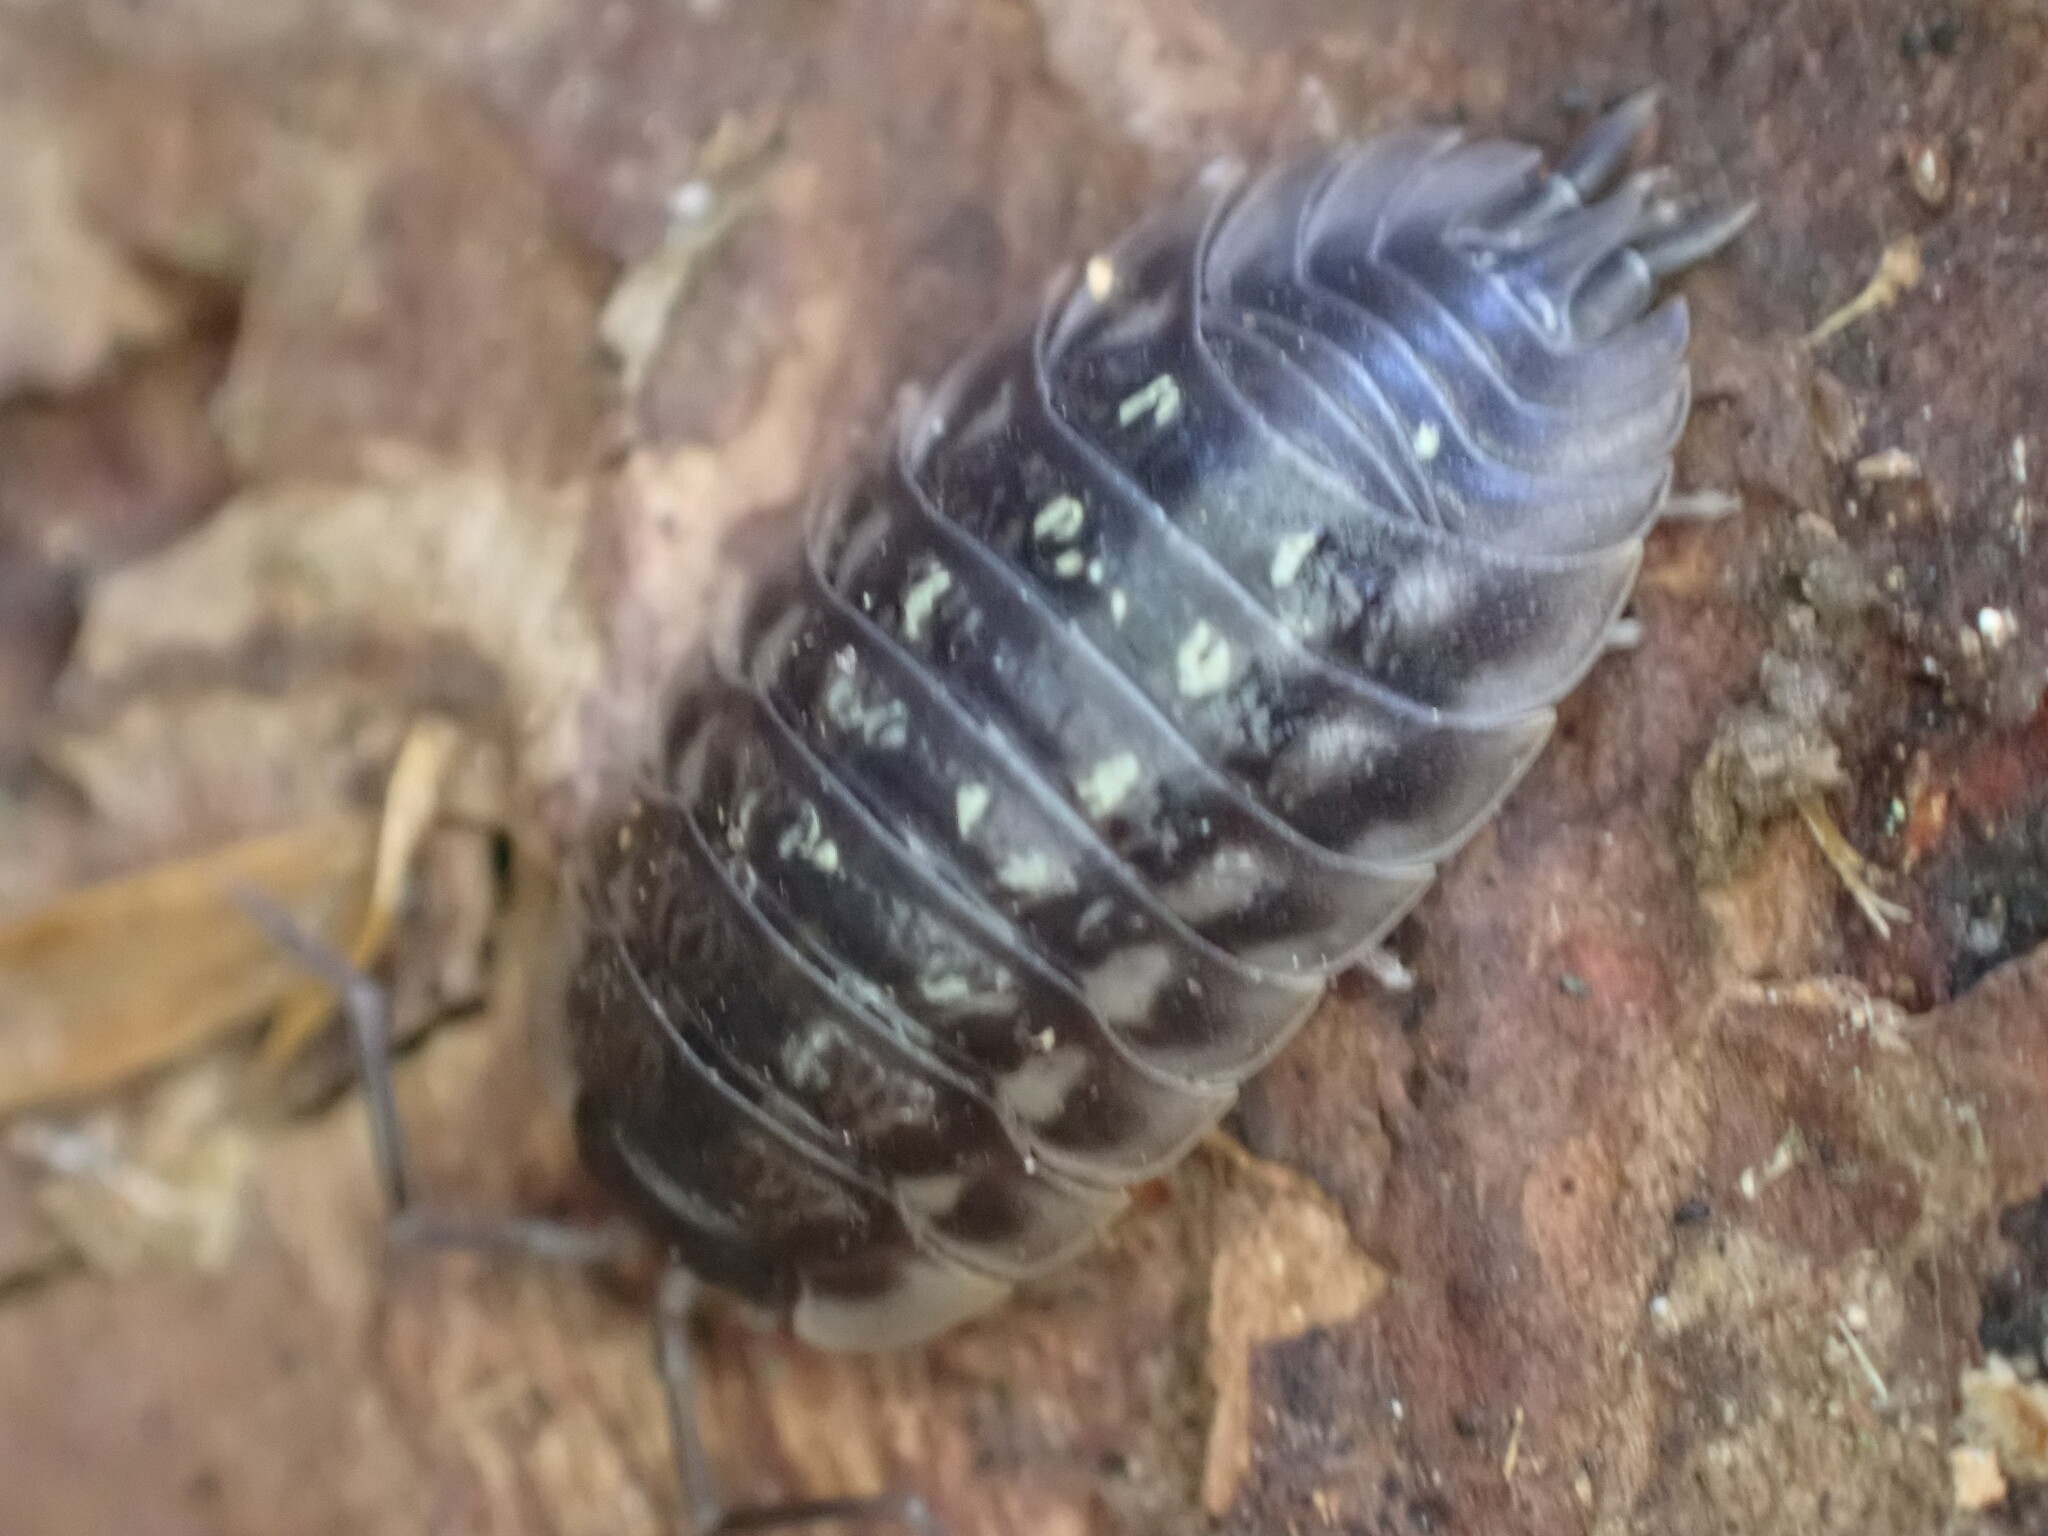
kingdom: Animalia
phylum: Arthropoda
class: Malacostraca
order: Isopoda
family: Oniscidae
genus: Oniscus
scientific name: Oniscus asellus
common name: Common shiny woodlouse
